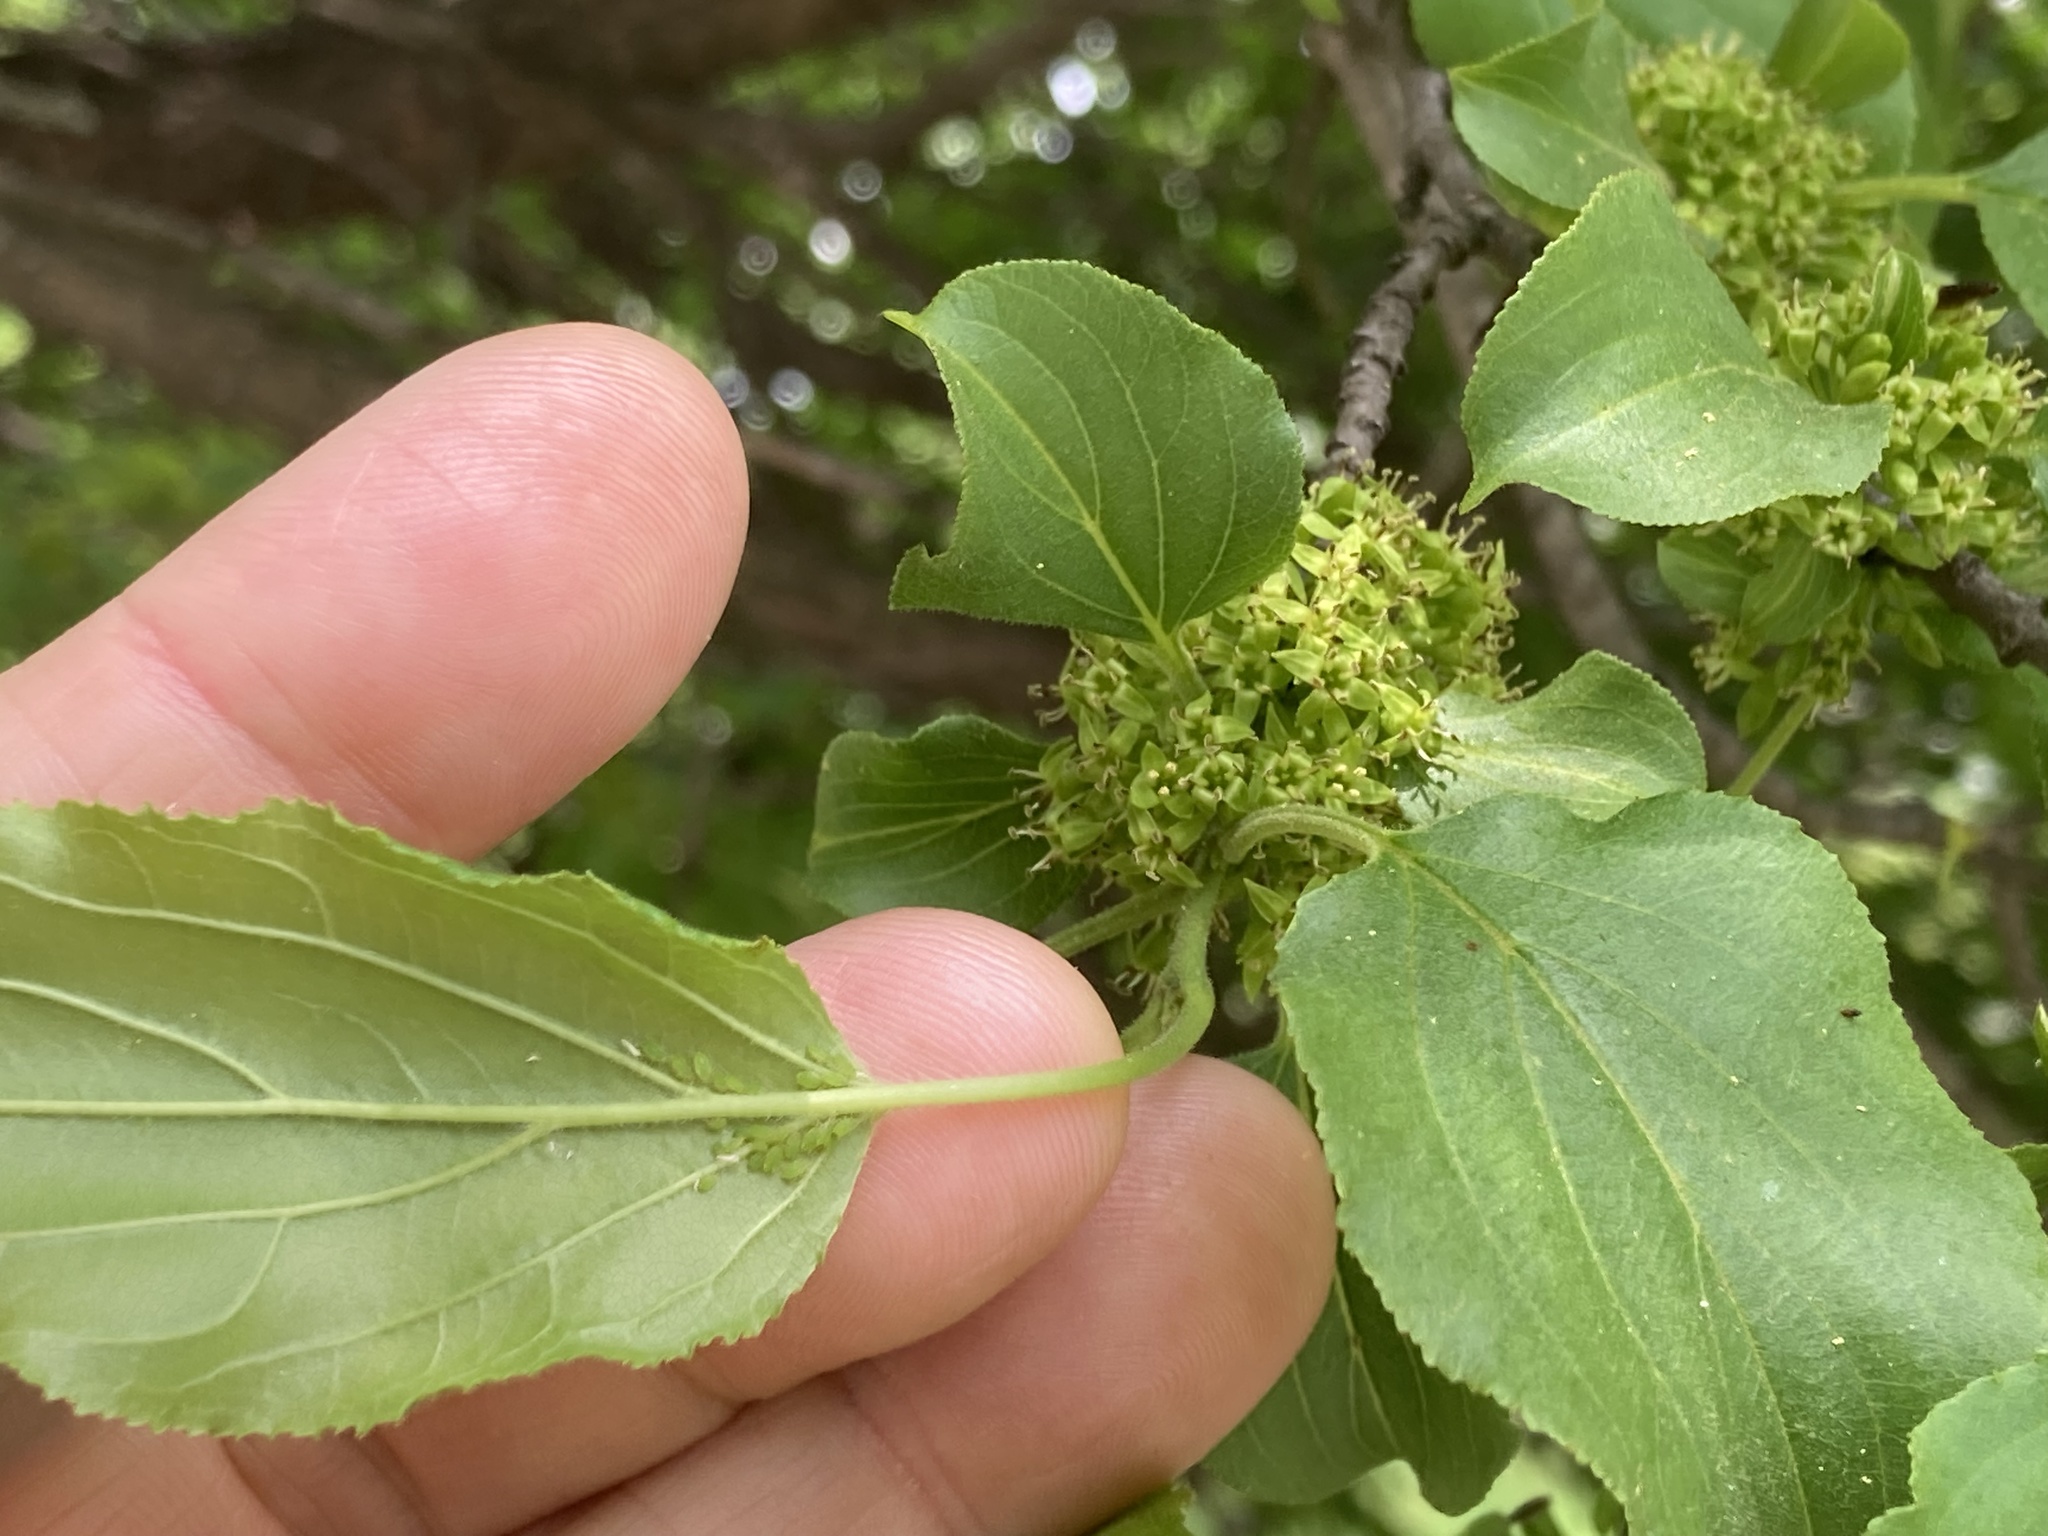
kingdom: Plantae
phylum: Tracheophyta
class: Magnoliopsida
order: Rosales
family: Rhamnaceae
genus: Rhamnus
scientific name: Rhamnus cathartica
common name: Common buckthorn
